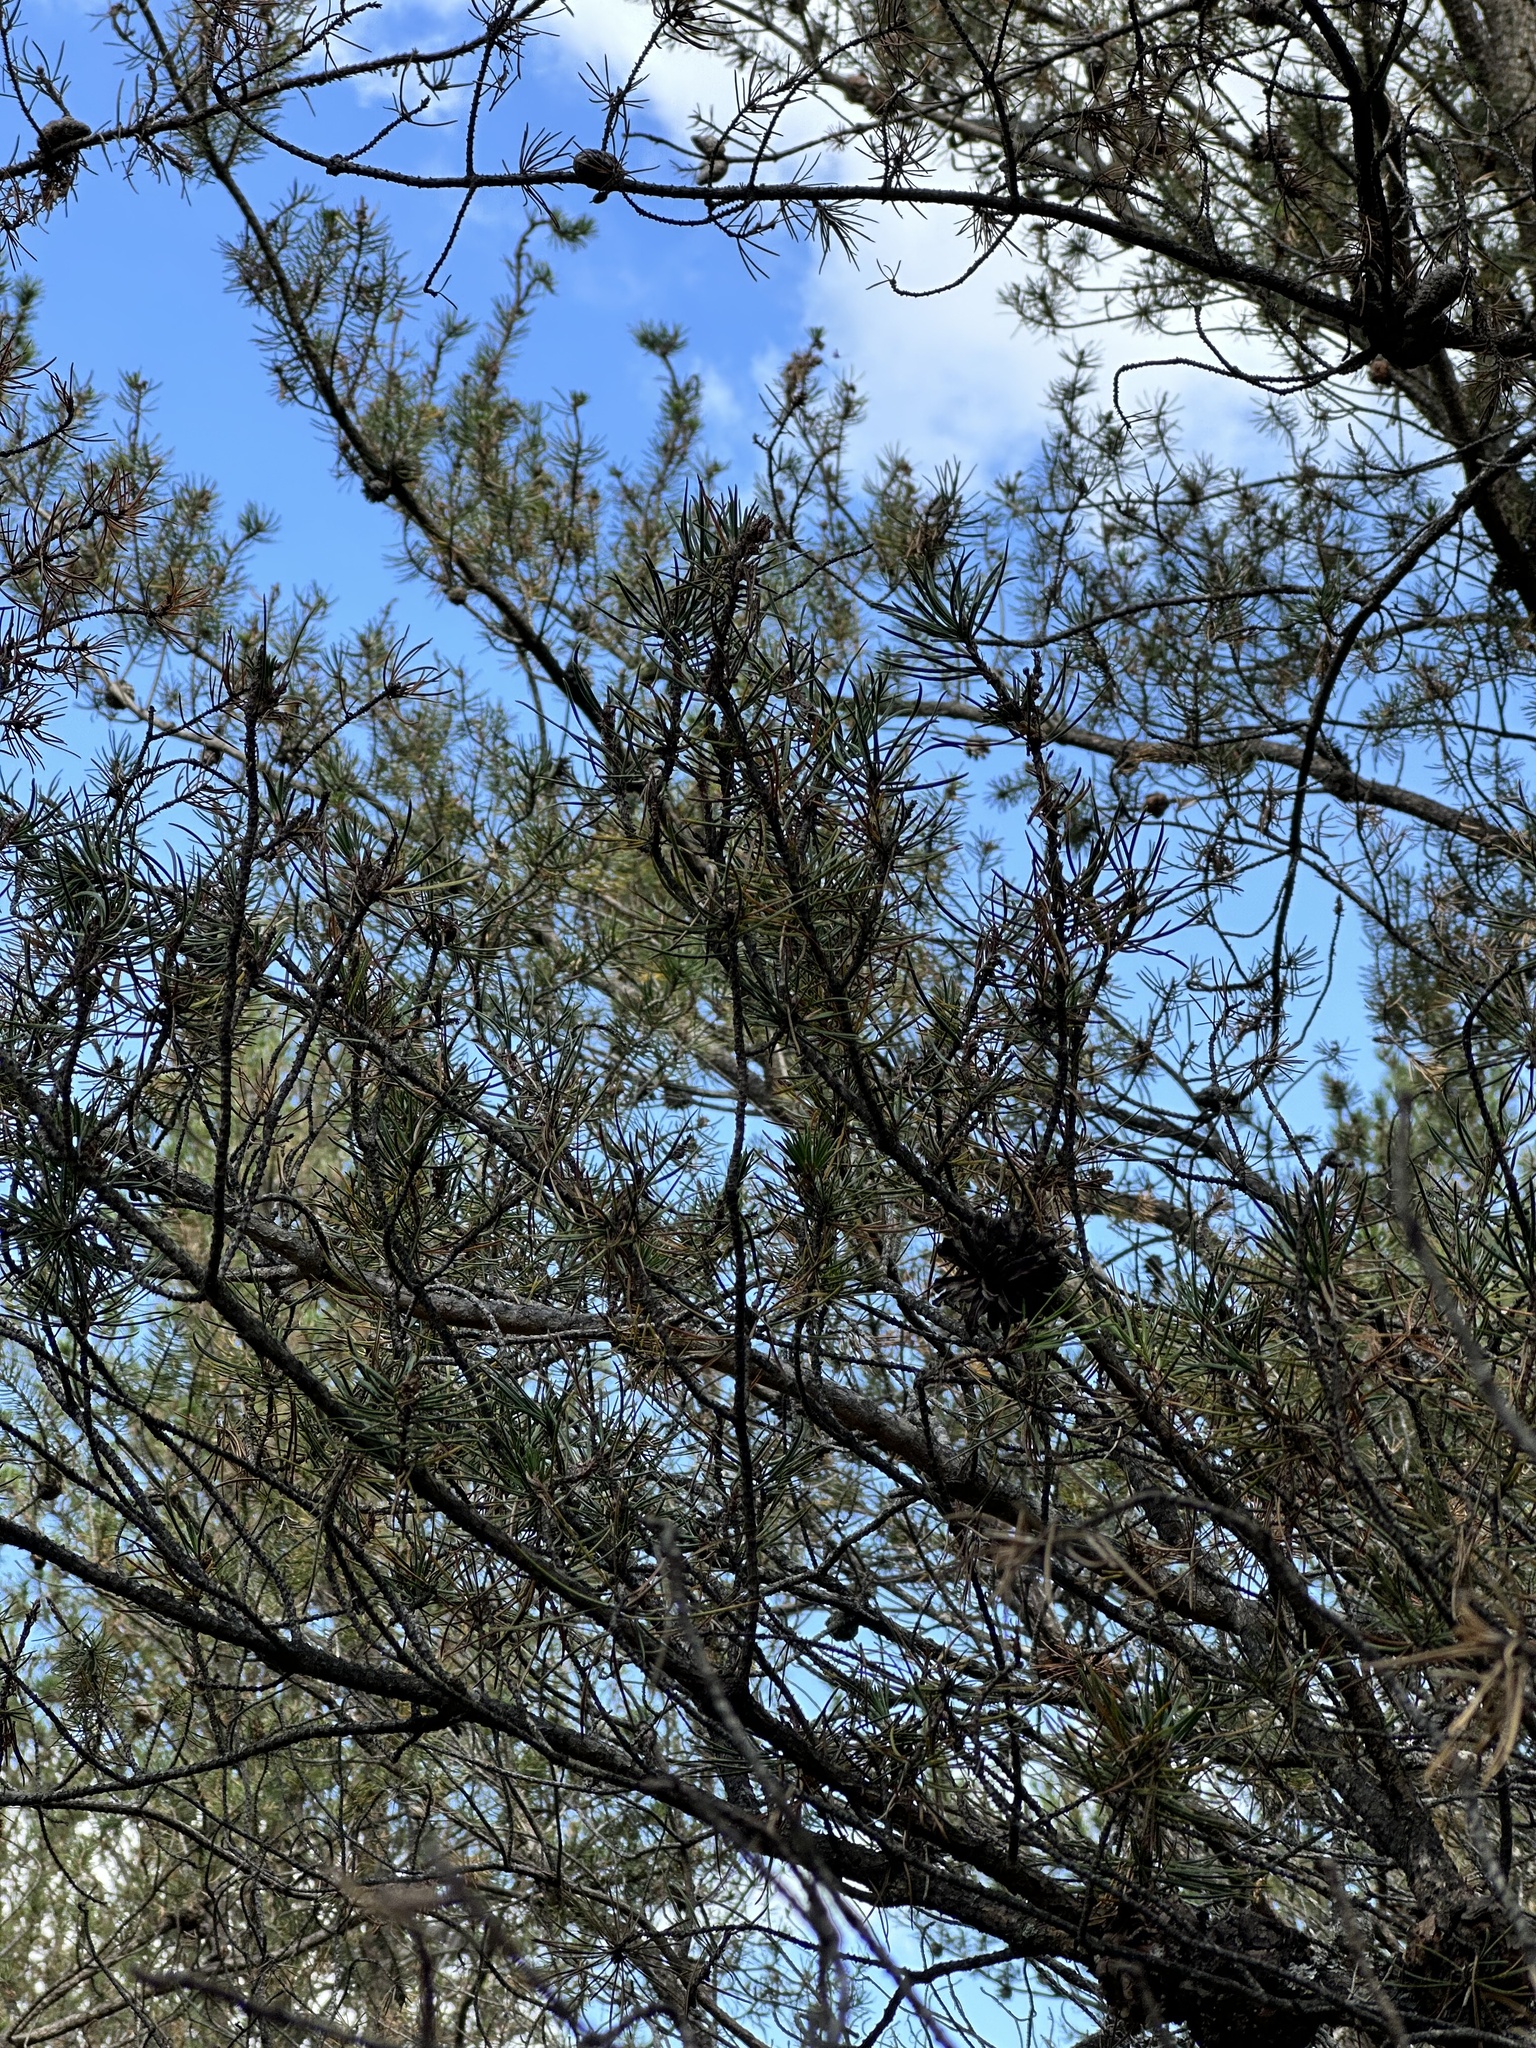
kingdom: Plantae
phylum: Tracheophyta
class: Pinopsida
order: Pinales
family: Pinaceae
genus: Pinus
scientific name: Pinus banksiana
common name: Jack pine
